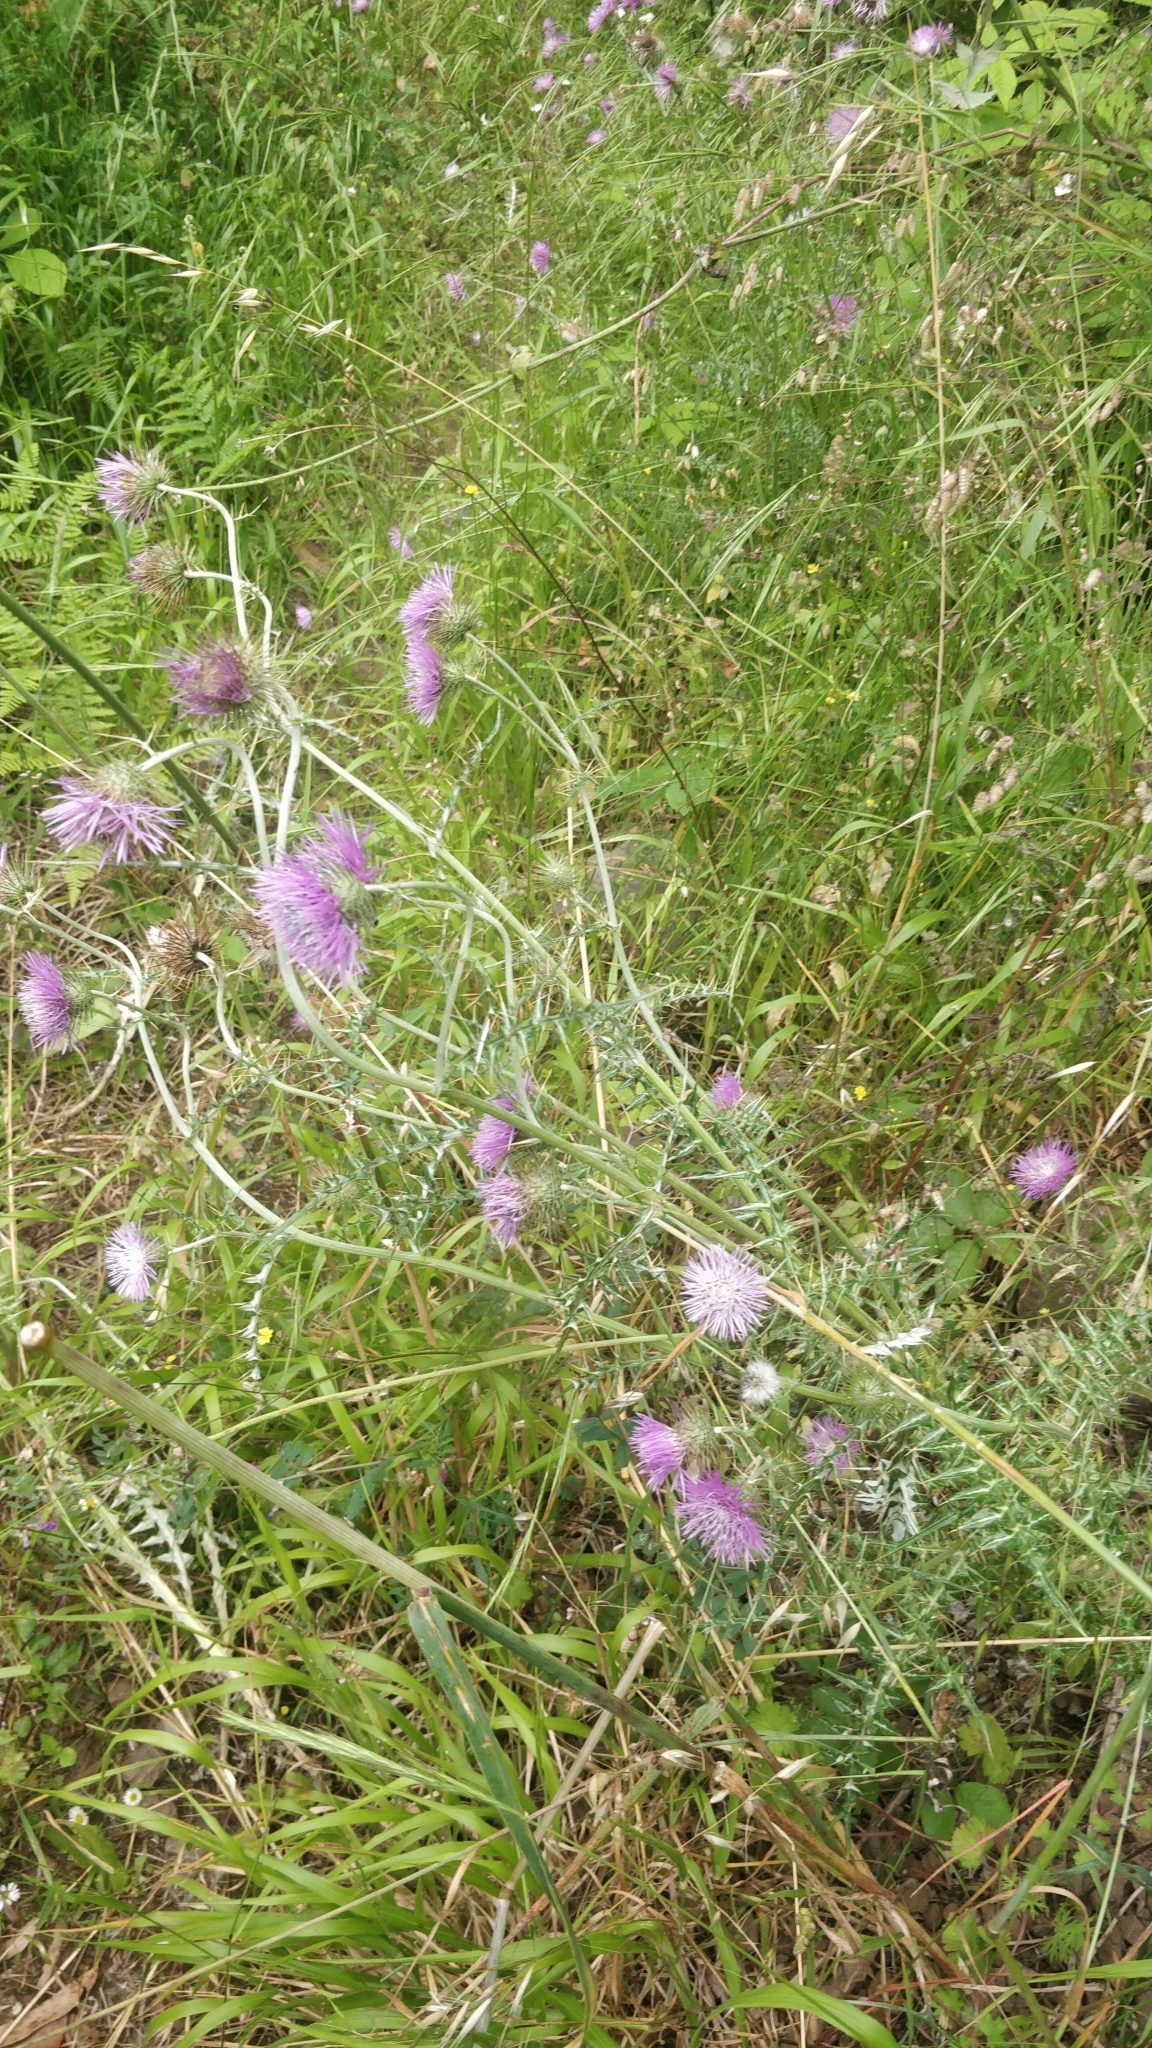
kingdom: Plantae
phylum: Tracheophyta
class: Magnoliopsida
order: Asterales
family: Asteraceae
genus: Galactites
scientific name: Galactites tomentosa
